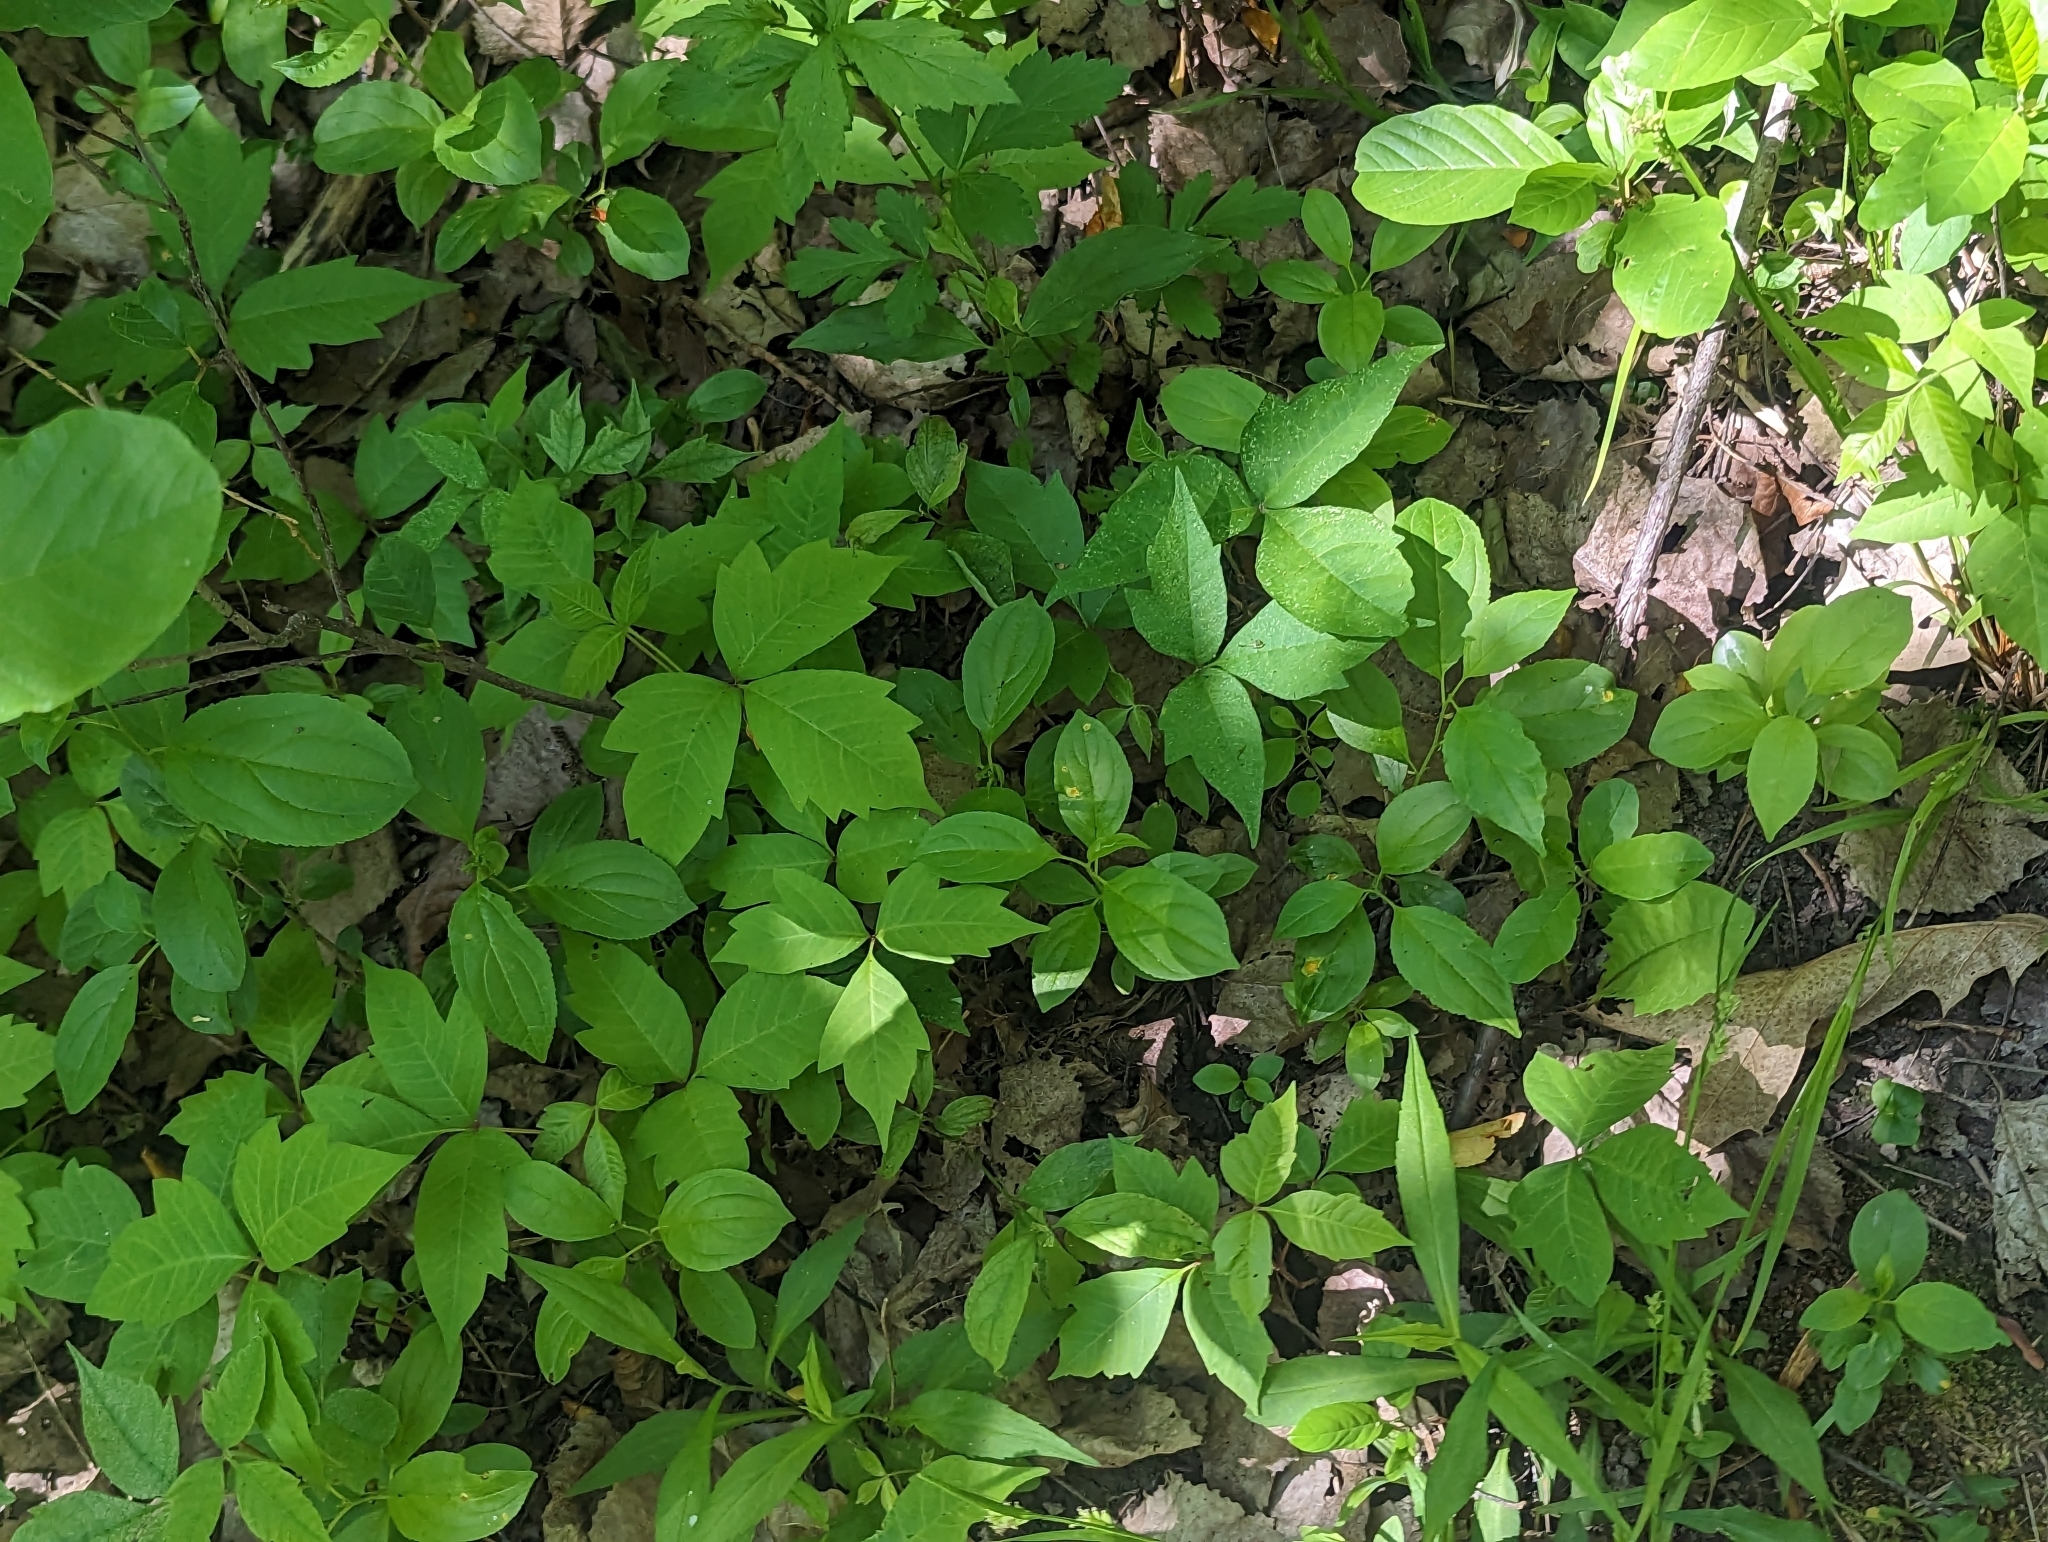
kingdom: Plantae
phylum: Tracheophyta
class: Magnoliopsida
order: Sapindales
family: Anacardiaceae
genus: Toxicodendron
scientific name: Toxicodendron radicans
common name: Poison ivy
